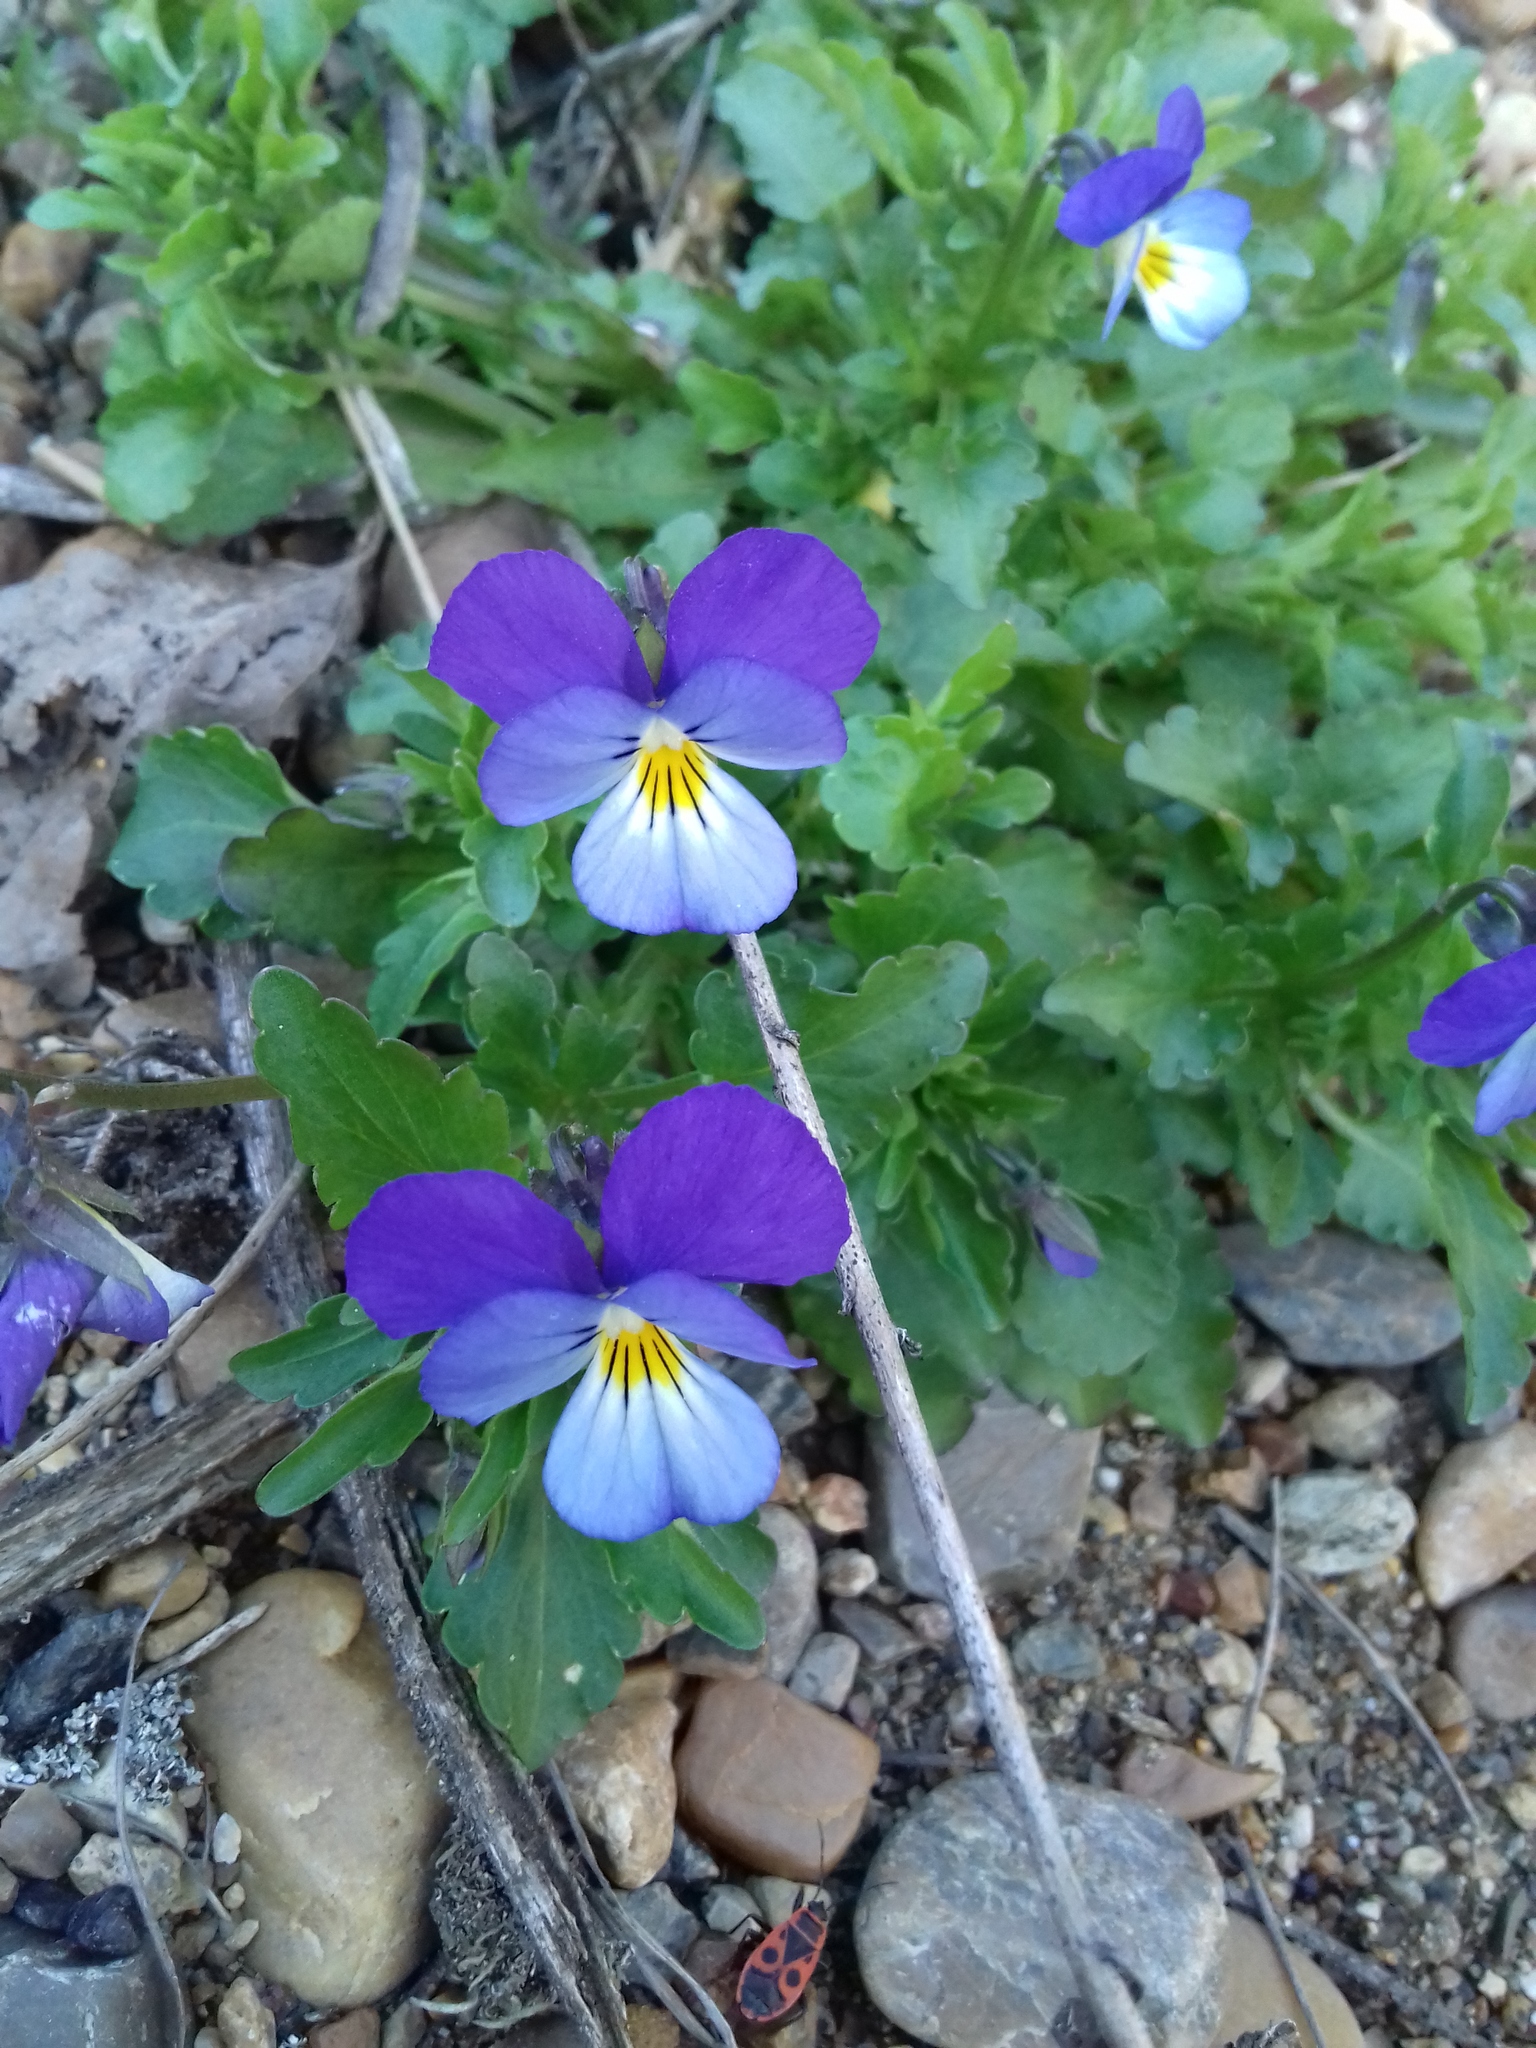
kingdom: Plantae
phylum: Tracheophyta
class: Magnoliopsida
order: Malpighiales
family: Violaceae
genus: Viola
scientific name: Viola tricolor
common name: Pansy
